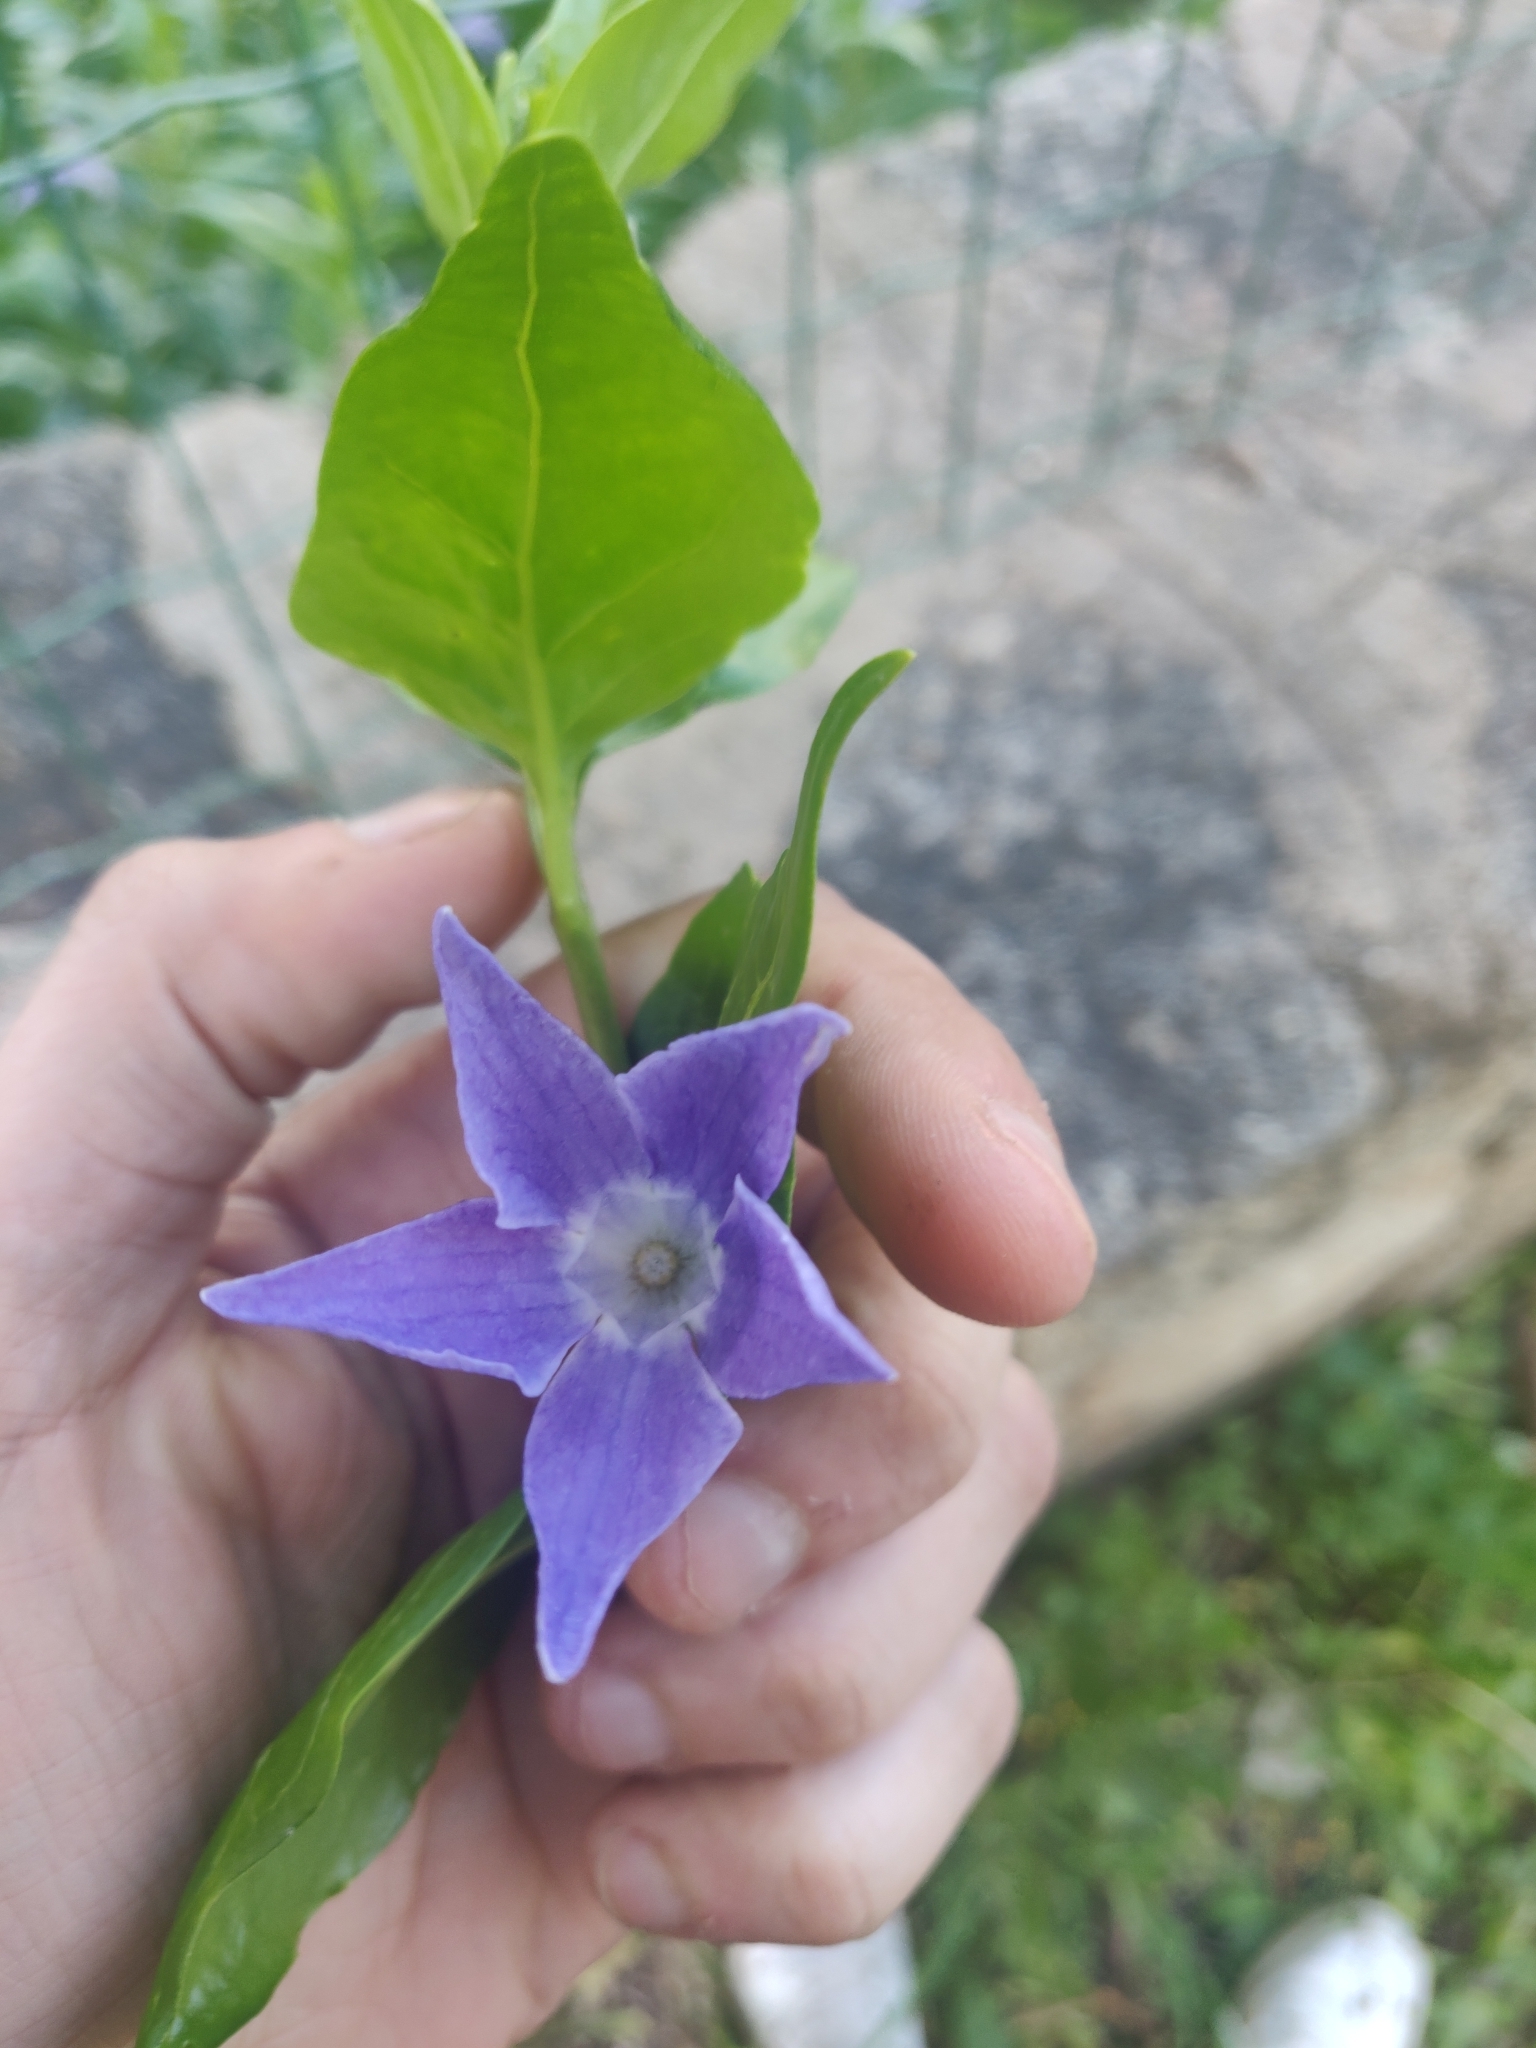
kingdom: Plantae
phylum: Tracheophyta
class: Magnoliopsida
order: Gentianales
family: Apocynaceae
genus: Vinca
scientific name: Vinca major
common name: Greater periwinkle
